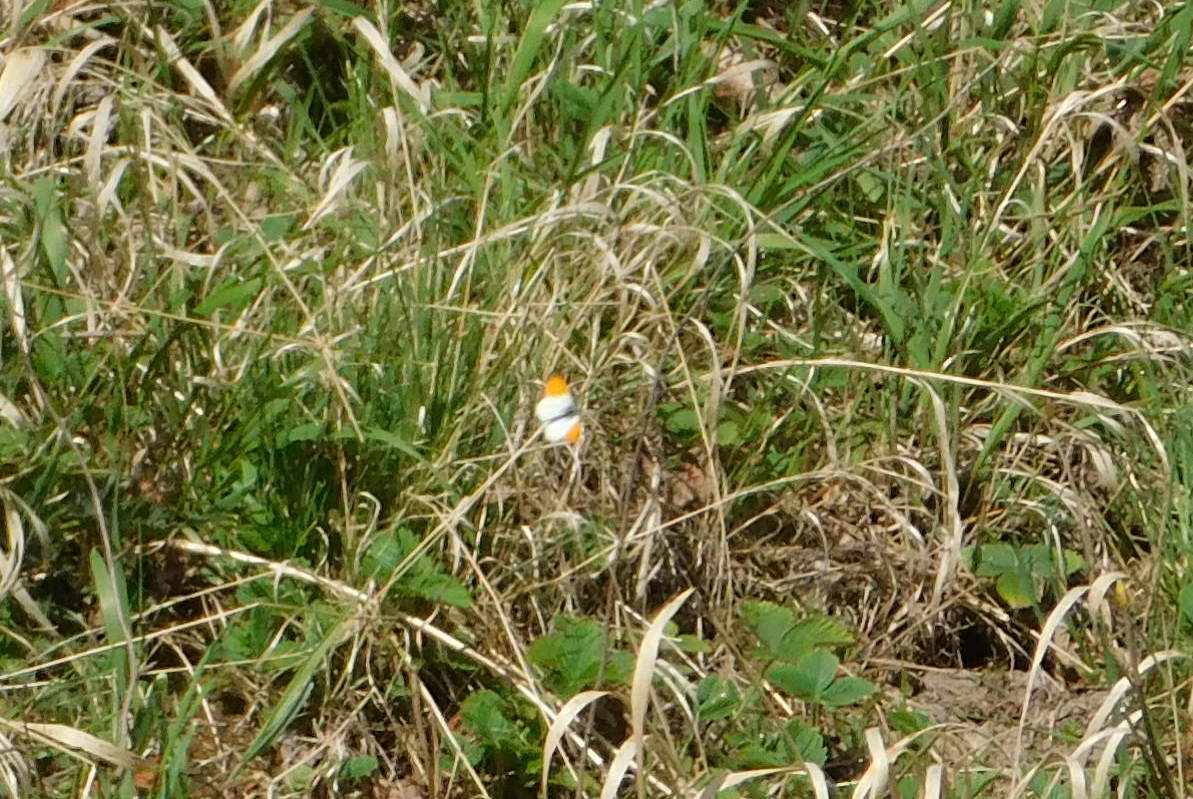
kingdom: Animalia
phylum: Arthropoda
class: Insecta
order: Lepidoptera
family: Pieridae
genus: Anthocharis
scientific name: Anthocharis cardamines
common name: Orange-tip
